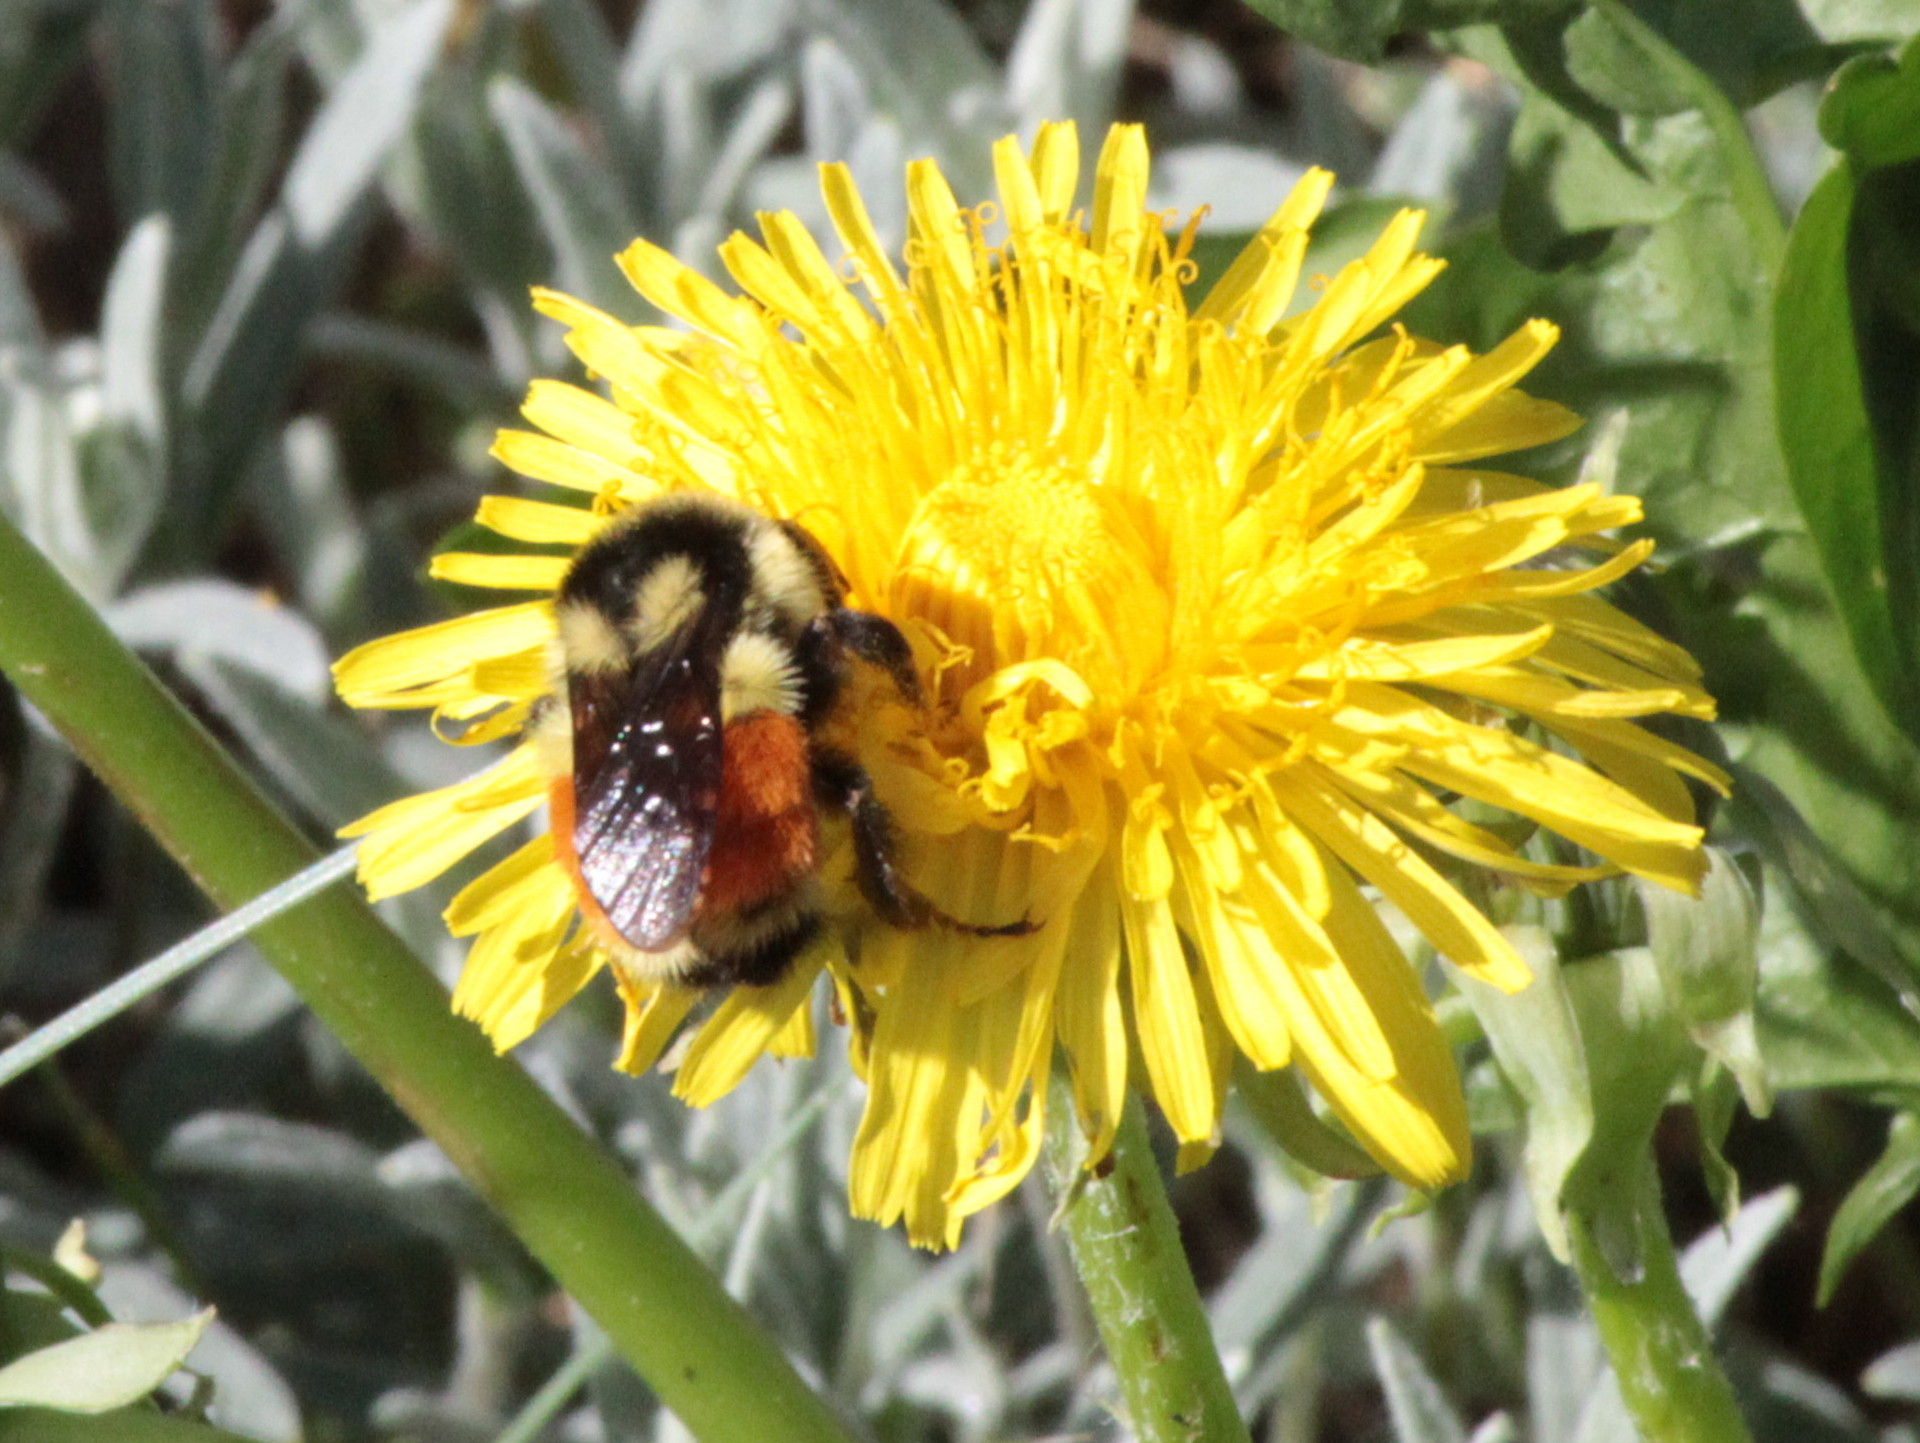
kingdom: Animalia
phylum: Arthropoda
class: Insecta
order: Hymenoptera
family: Apidae
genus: Bombus
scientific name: Bombus ternarius
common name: Tri-colored bumble bee
